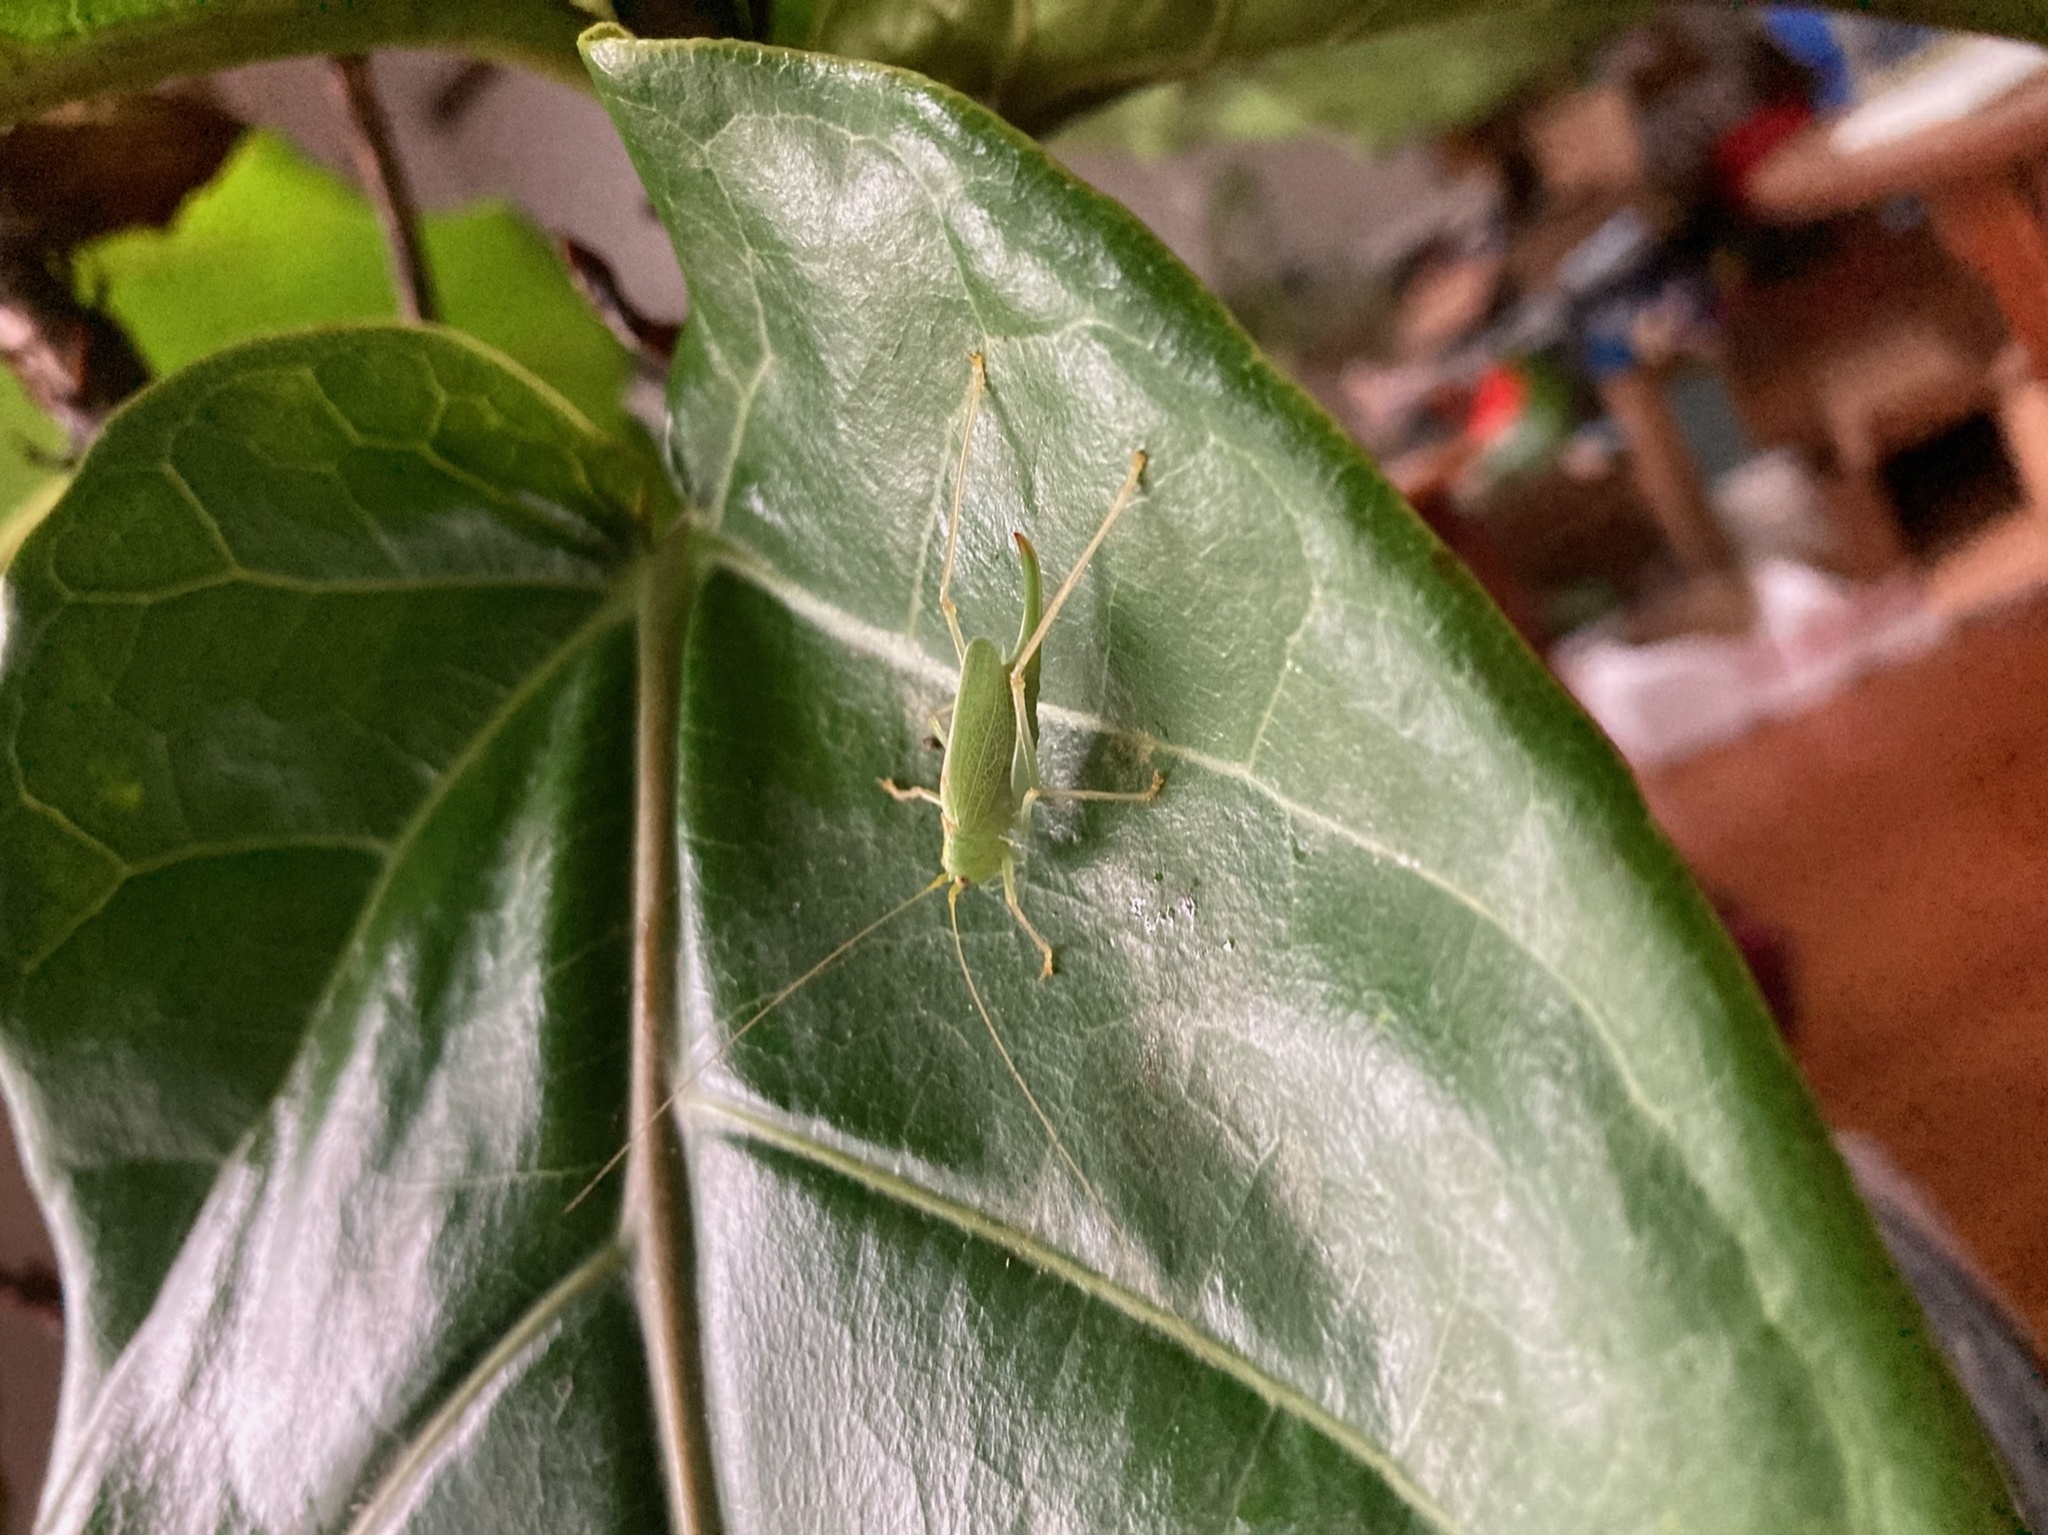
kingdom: Animalia
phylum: Arthropoda
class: Insecta
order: Orthoptera
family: Tettigoniidae
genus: Meconema
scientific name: Meconema thalassinum
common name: Oak bush-cricket
